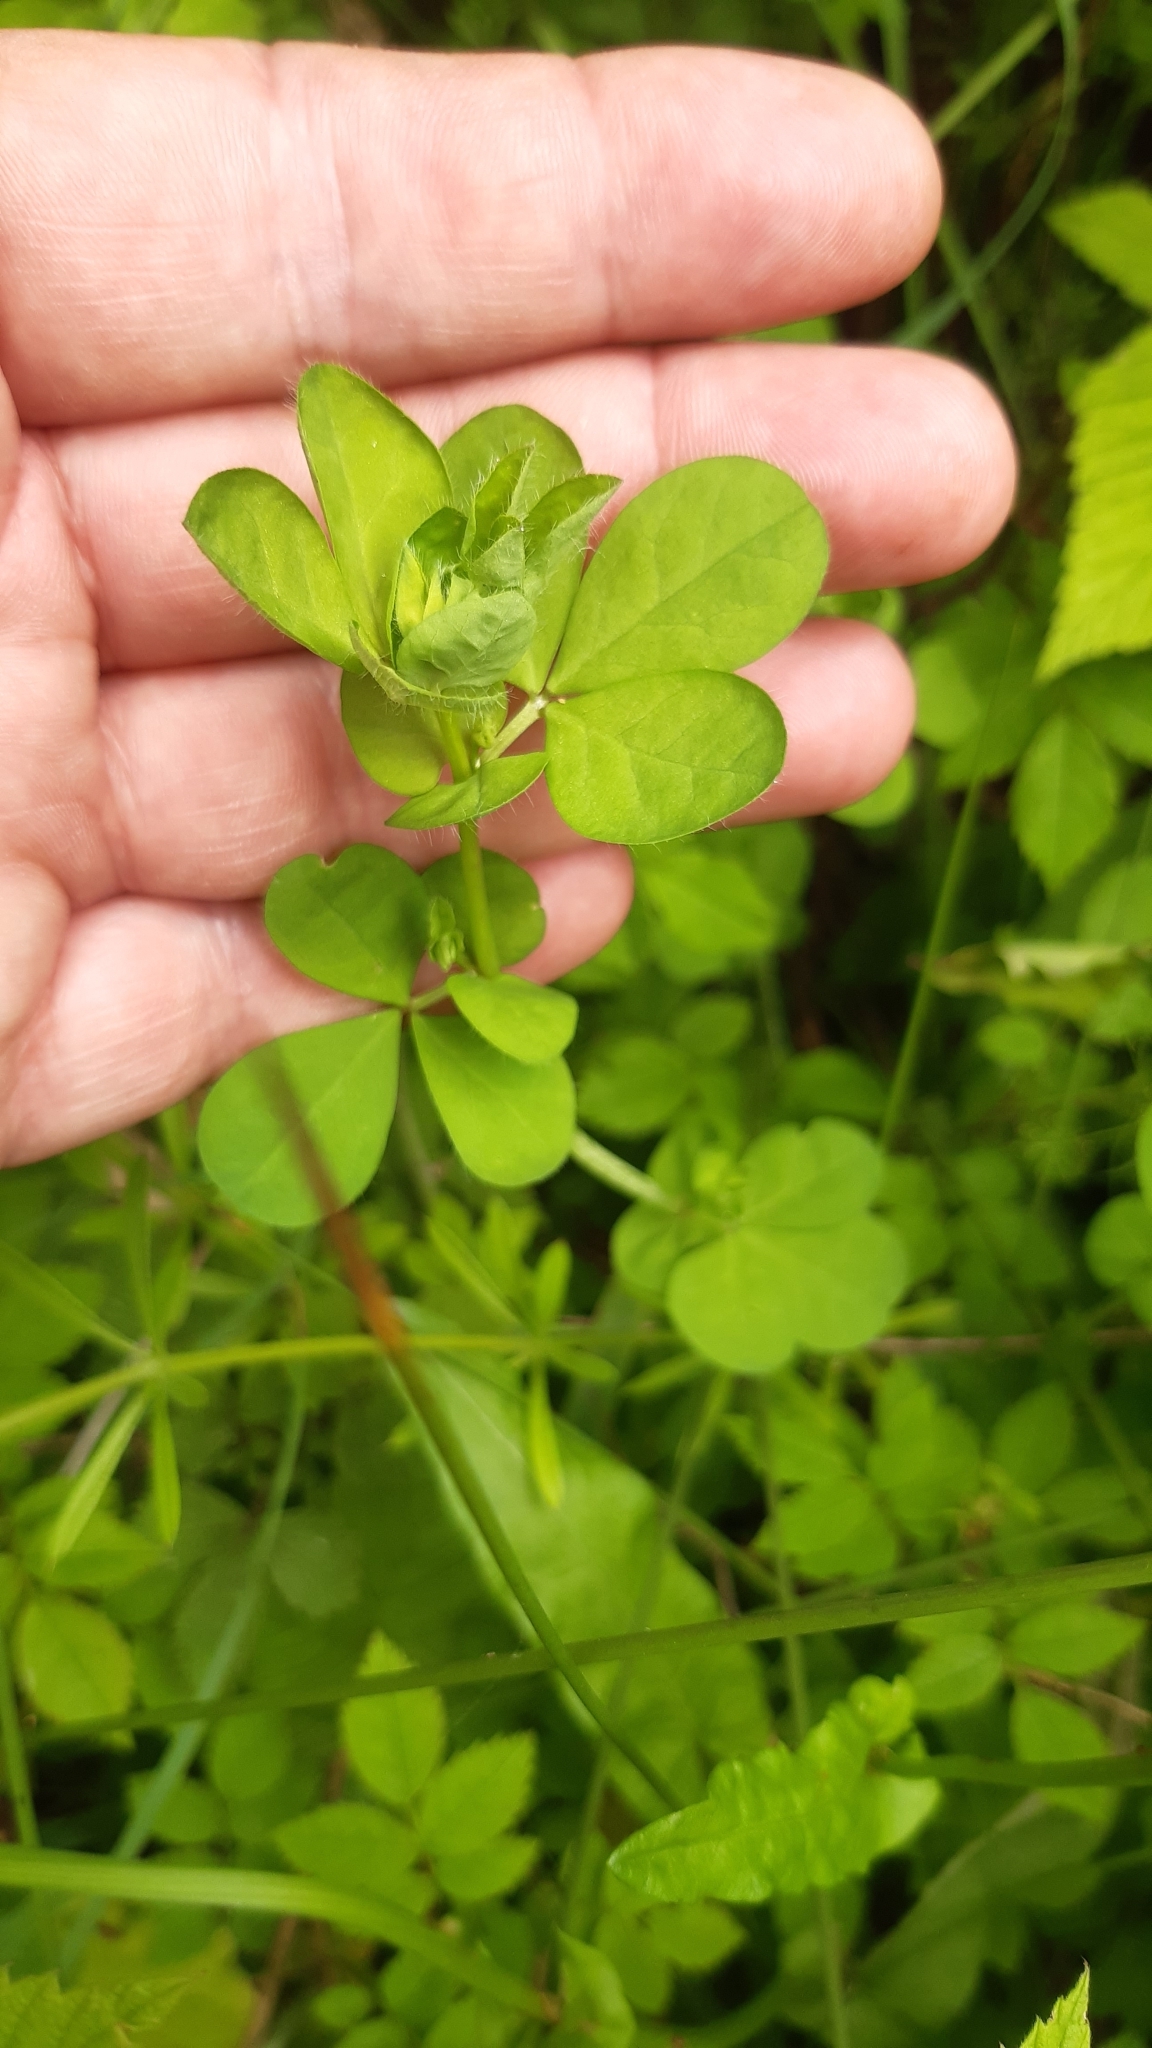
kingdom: Plantae
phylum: Tracheophyta
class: Magnoliopsida
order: Fabales
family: Fabaceae
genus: Lotus
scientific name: Lotus pedunculatus
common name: Greater birdsfoot-trefoil
